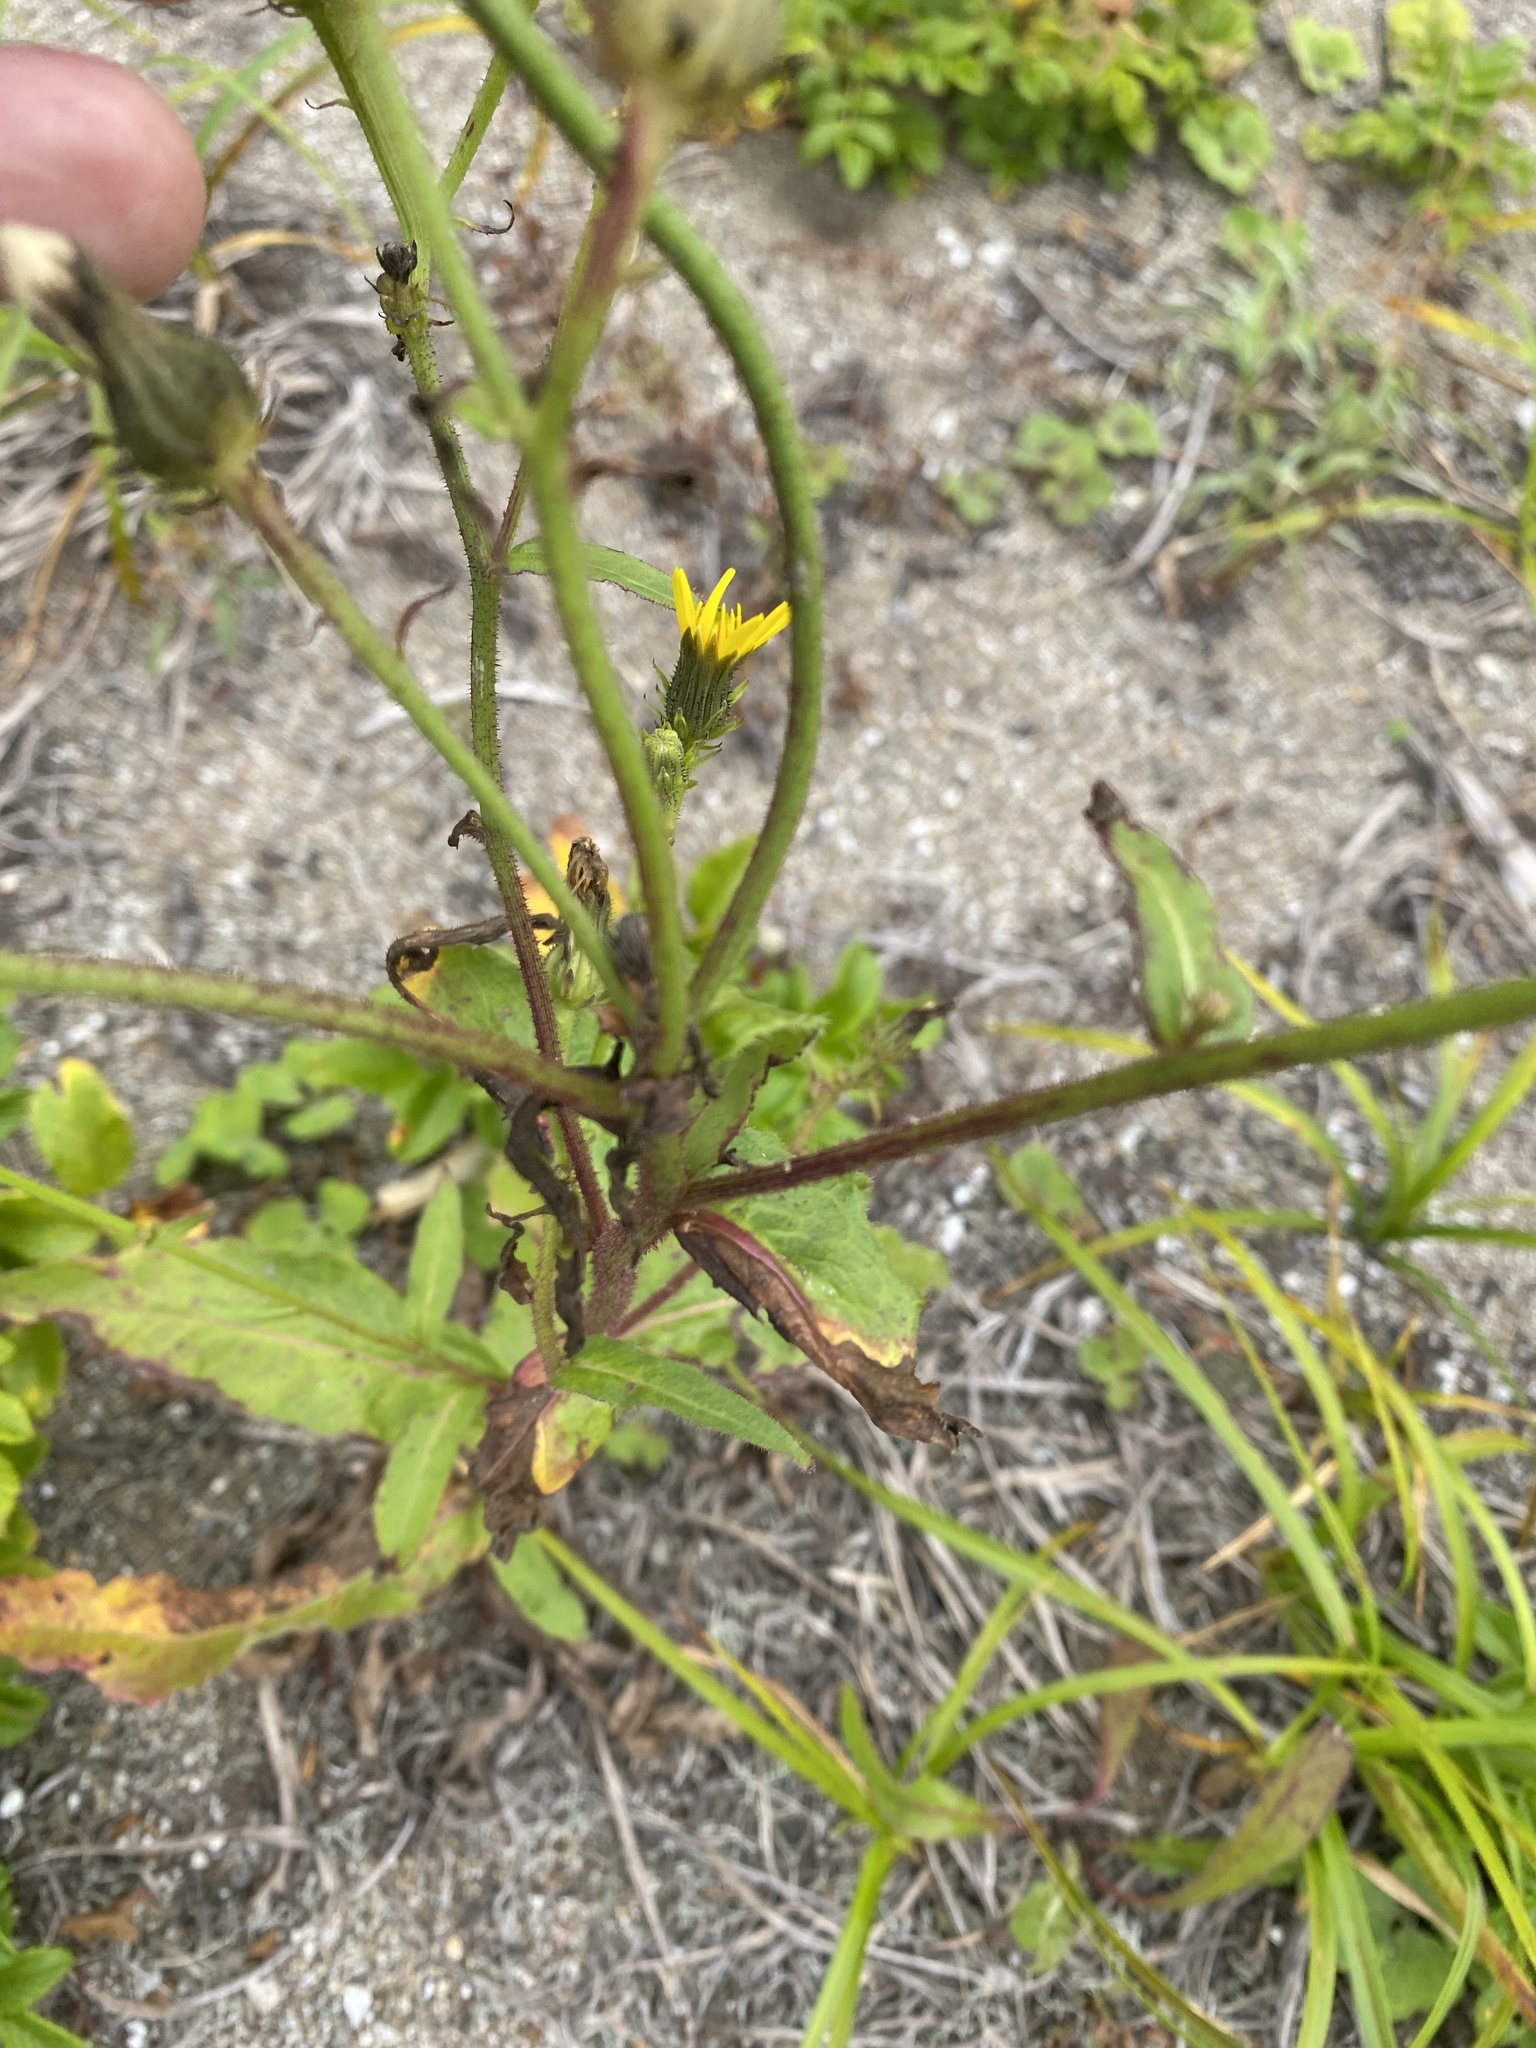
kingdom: Plantae
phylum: Tracheophyta
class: Magnoliopsida
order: Asterales
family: Asteraceae
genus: Picris
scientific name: Picris japonica
